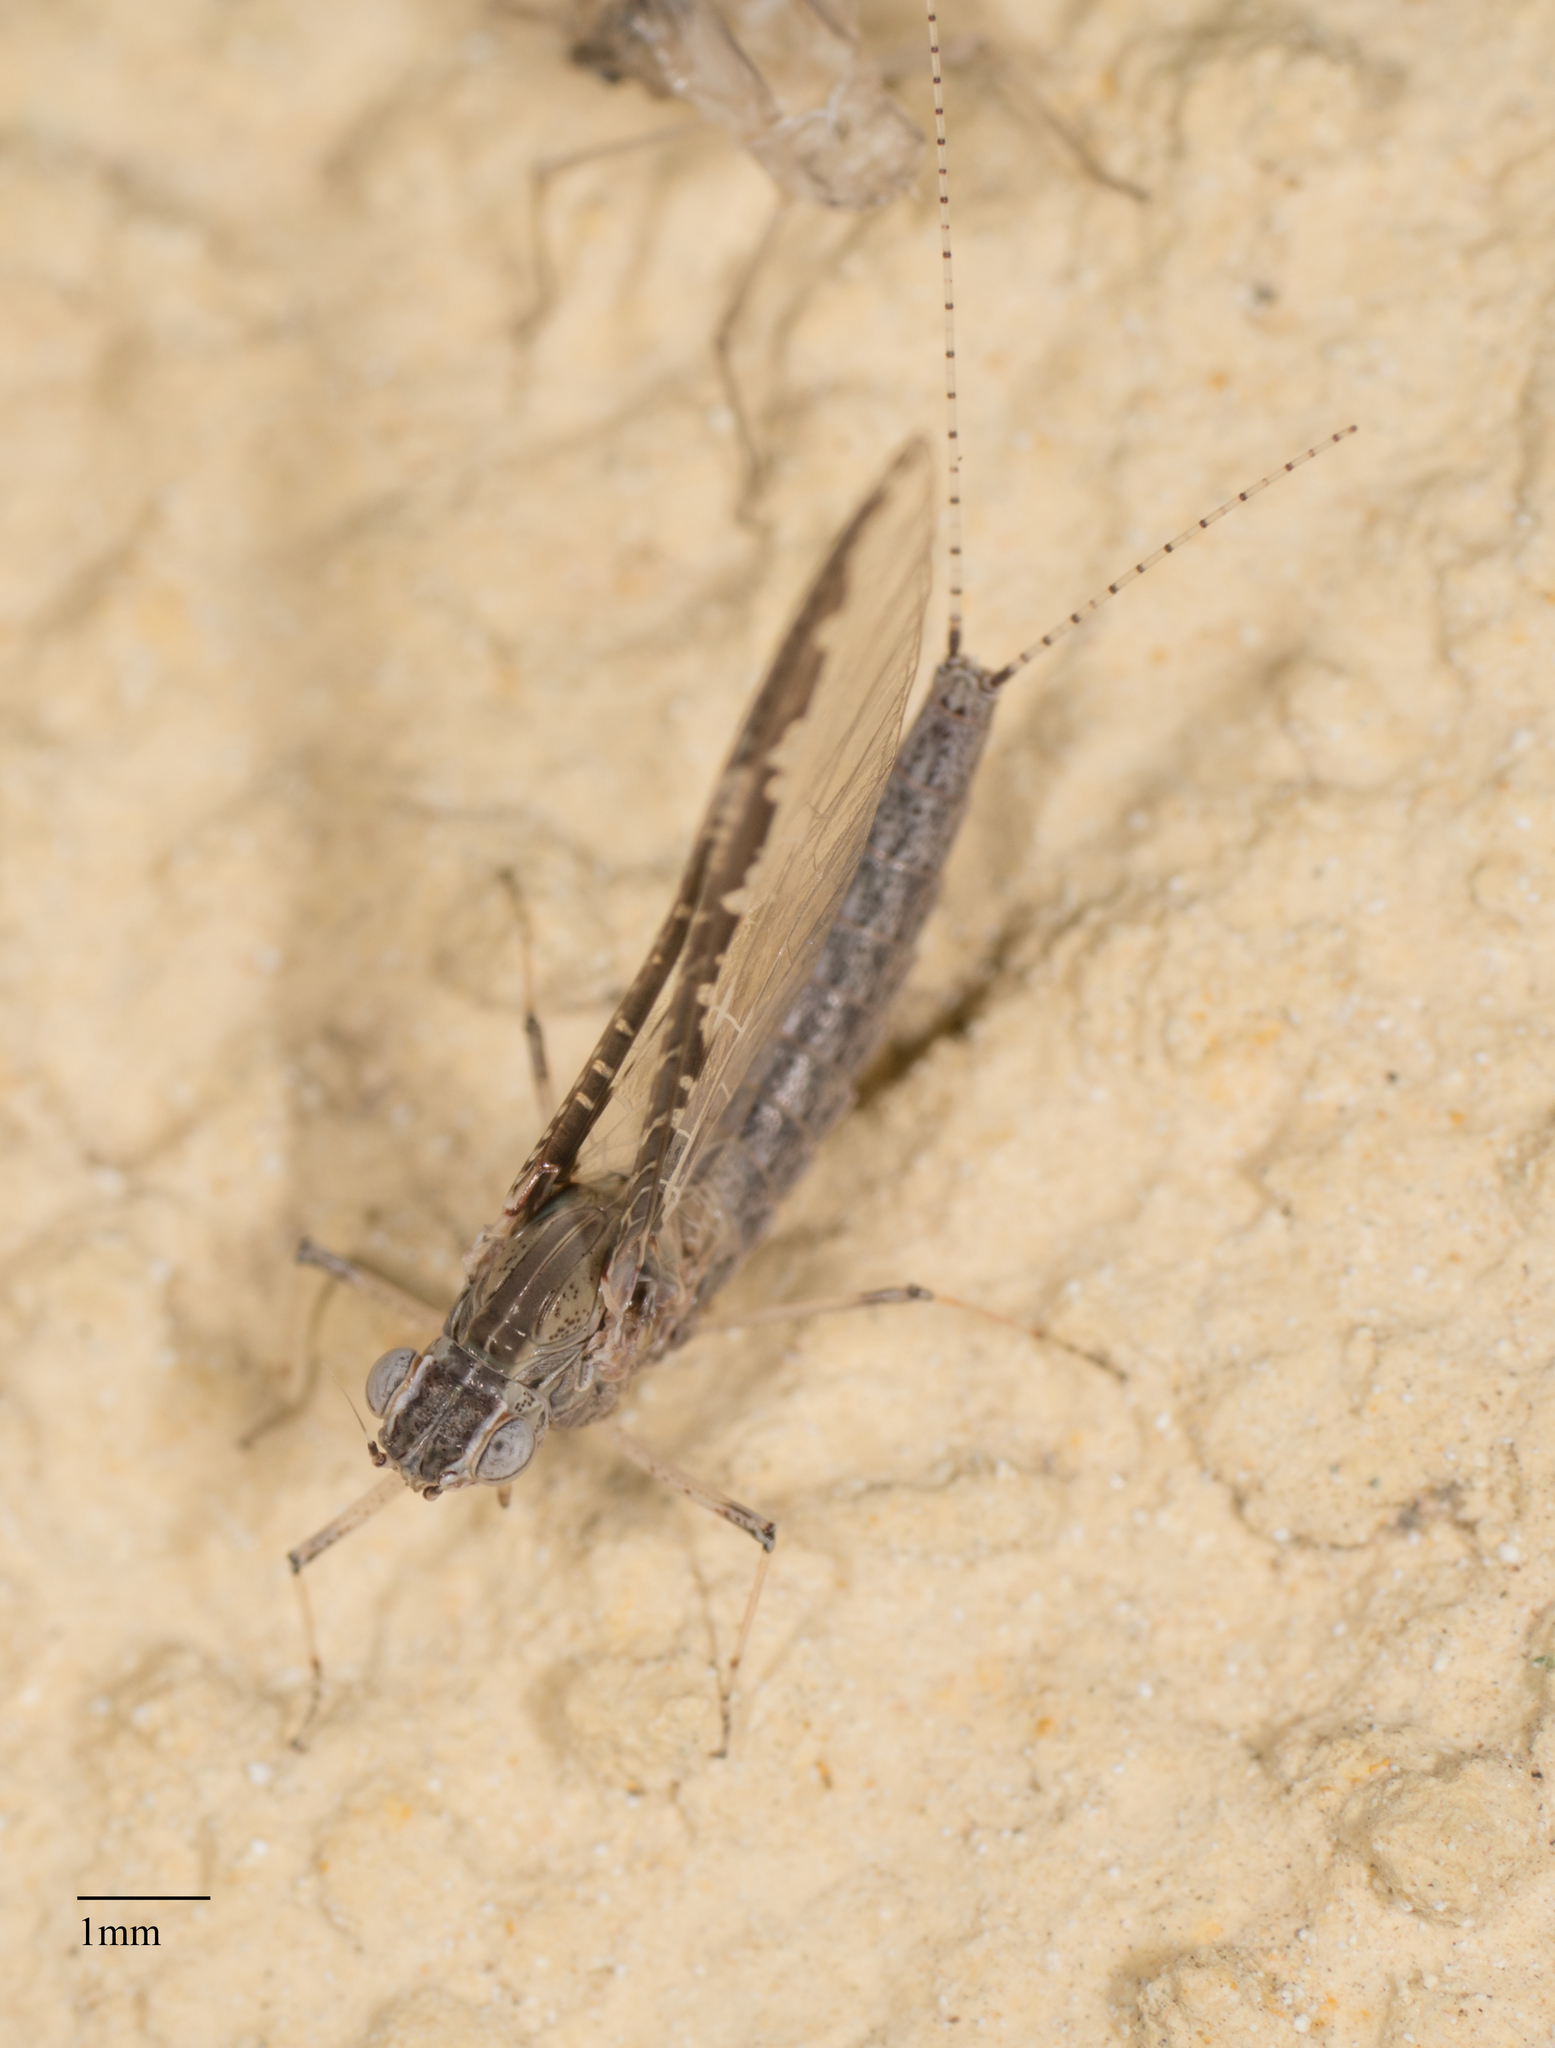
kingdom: Animalia
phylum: Arthropoda
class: Insecta
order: Ephemeroptera
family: Baetidae
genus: Callibaetis
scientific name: Callibaetis californicus
